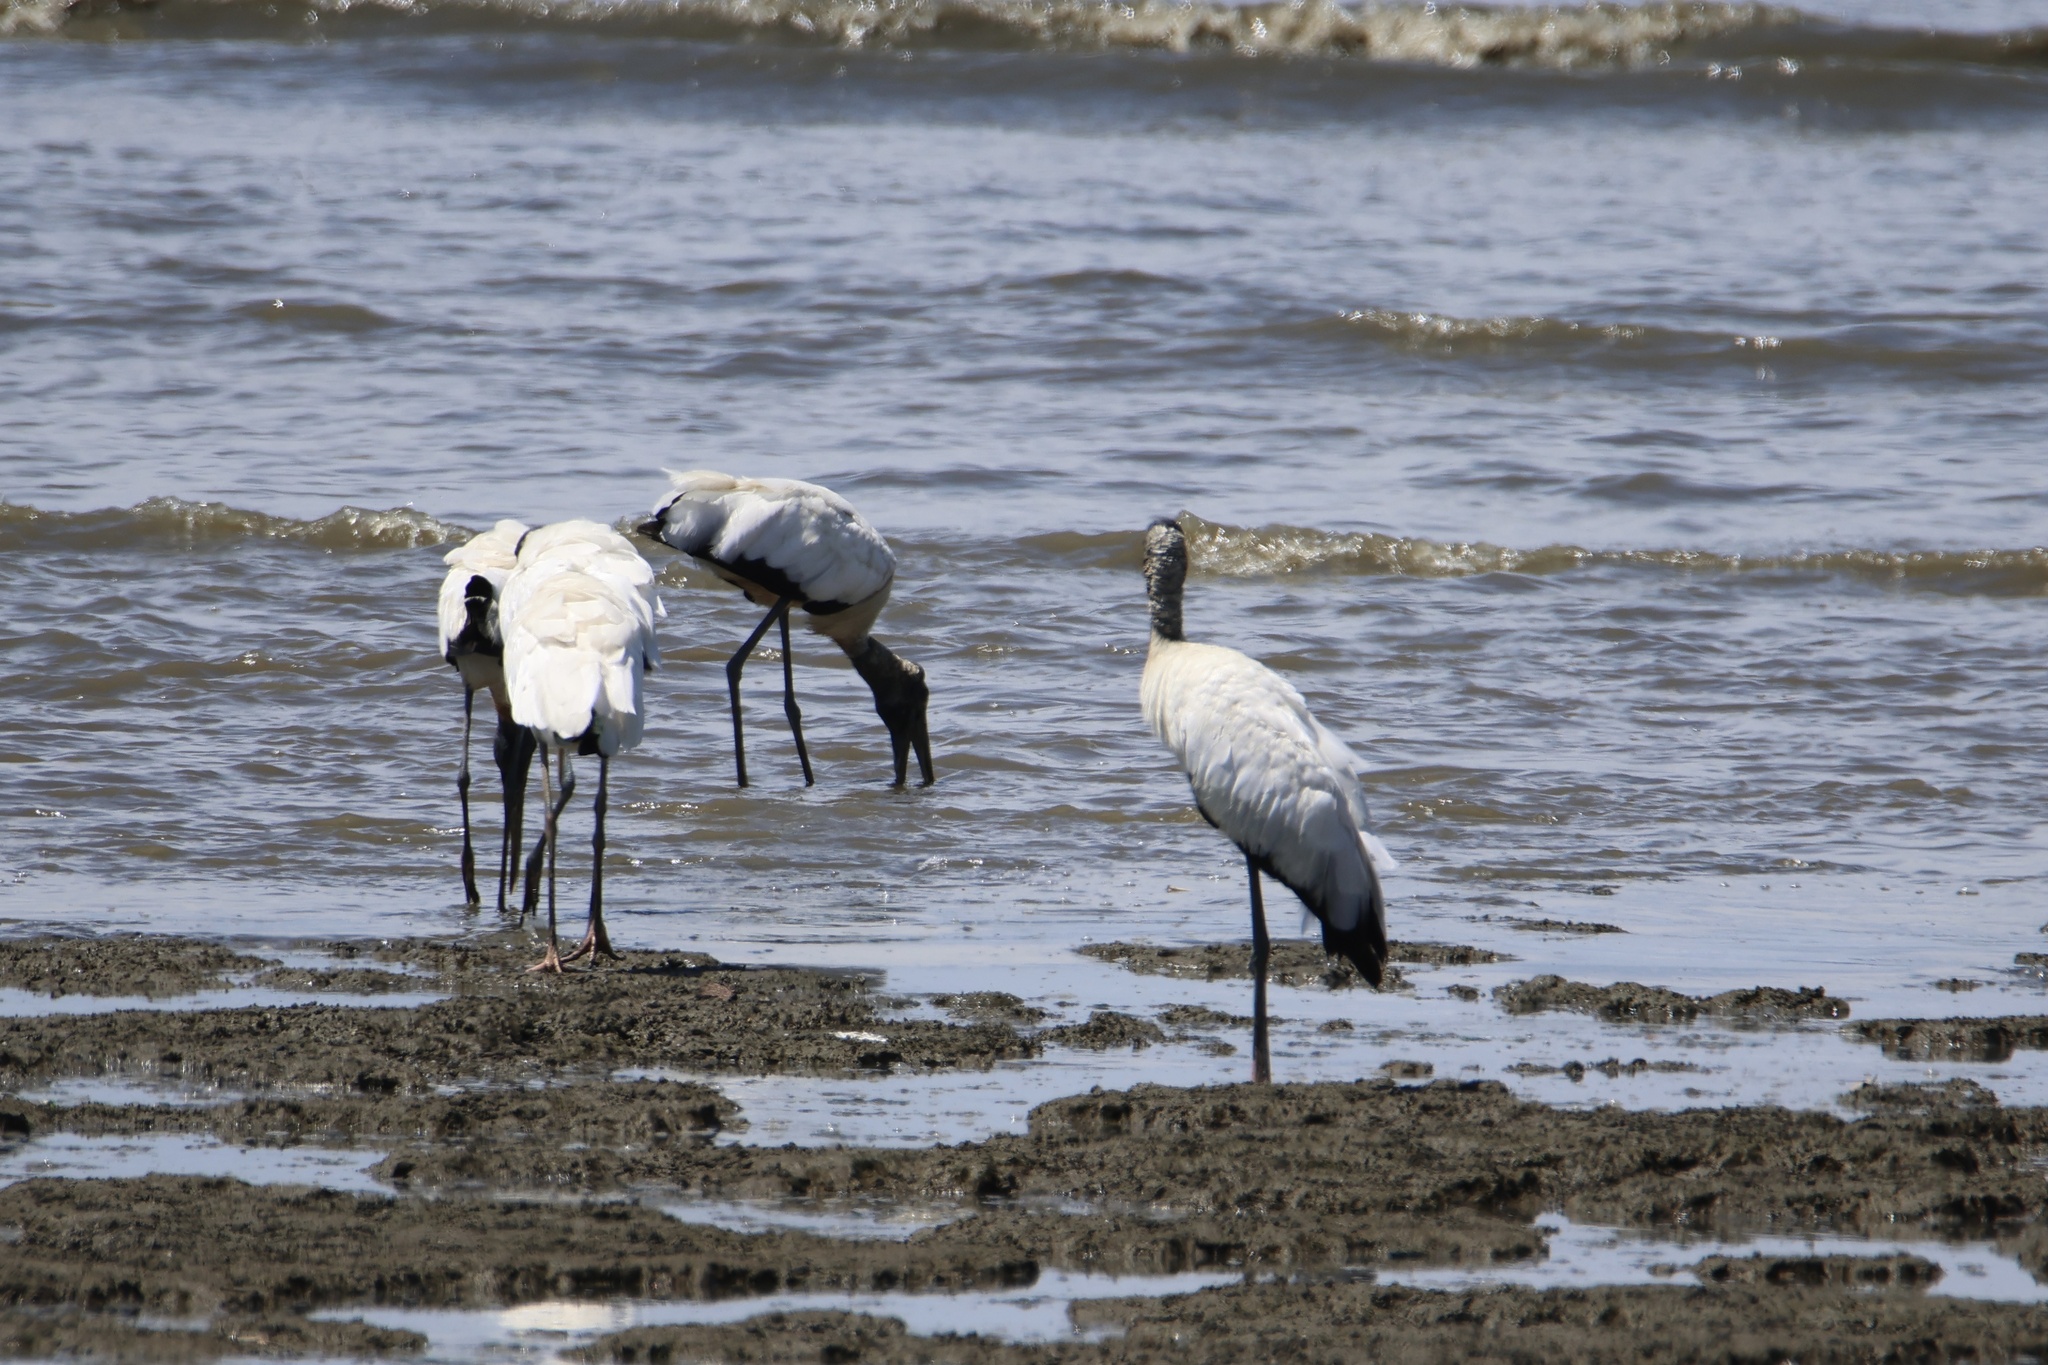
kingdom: Animalia
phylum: Chordata
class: Aves
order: Ciconiiformes
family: Ciconiidae
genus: Mycteria
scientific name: Mycteria americana
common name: Wood stork
